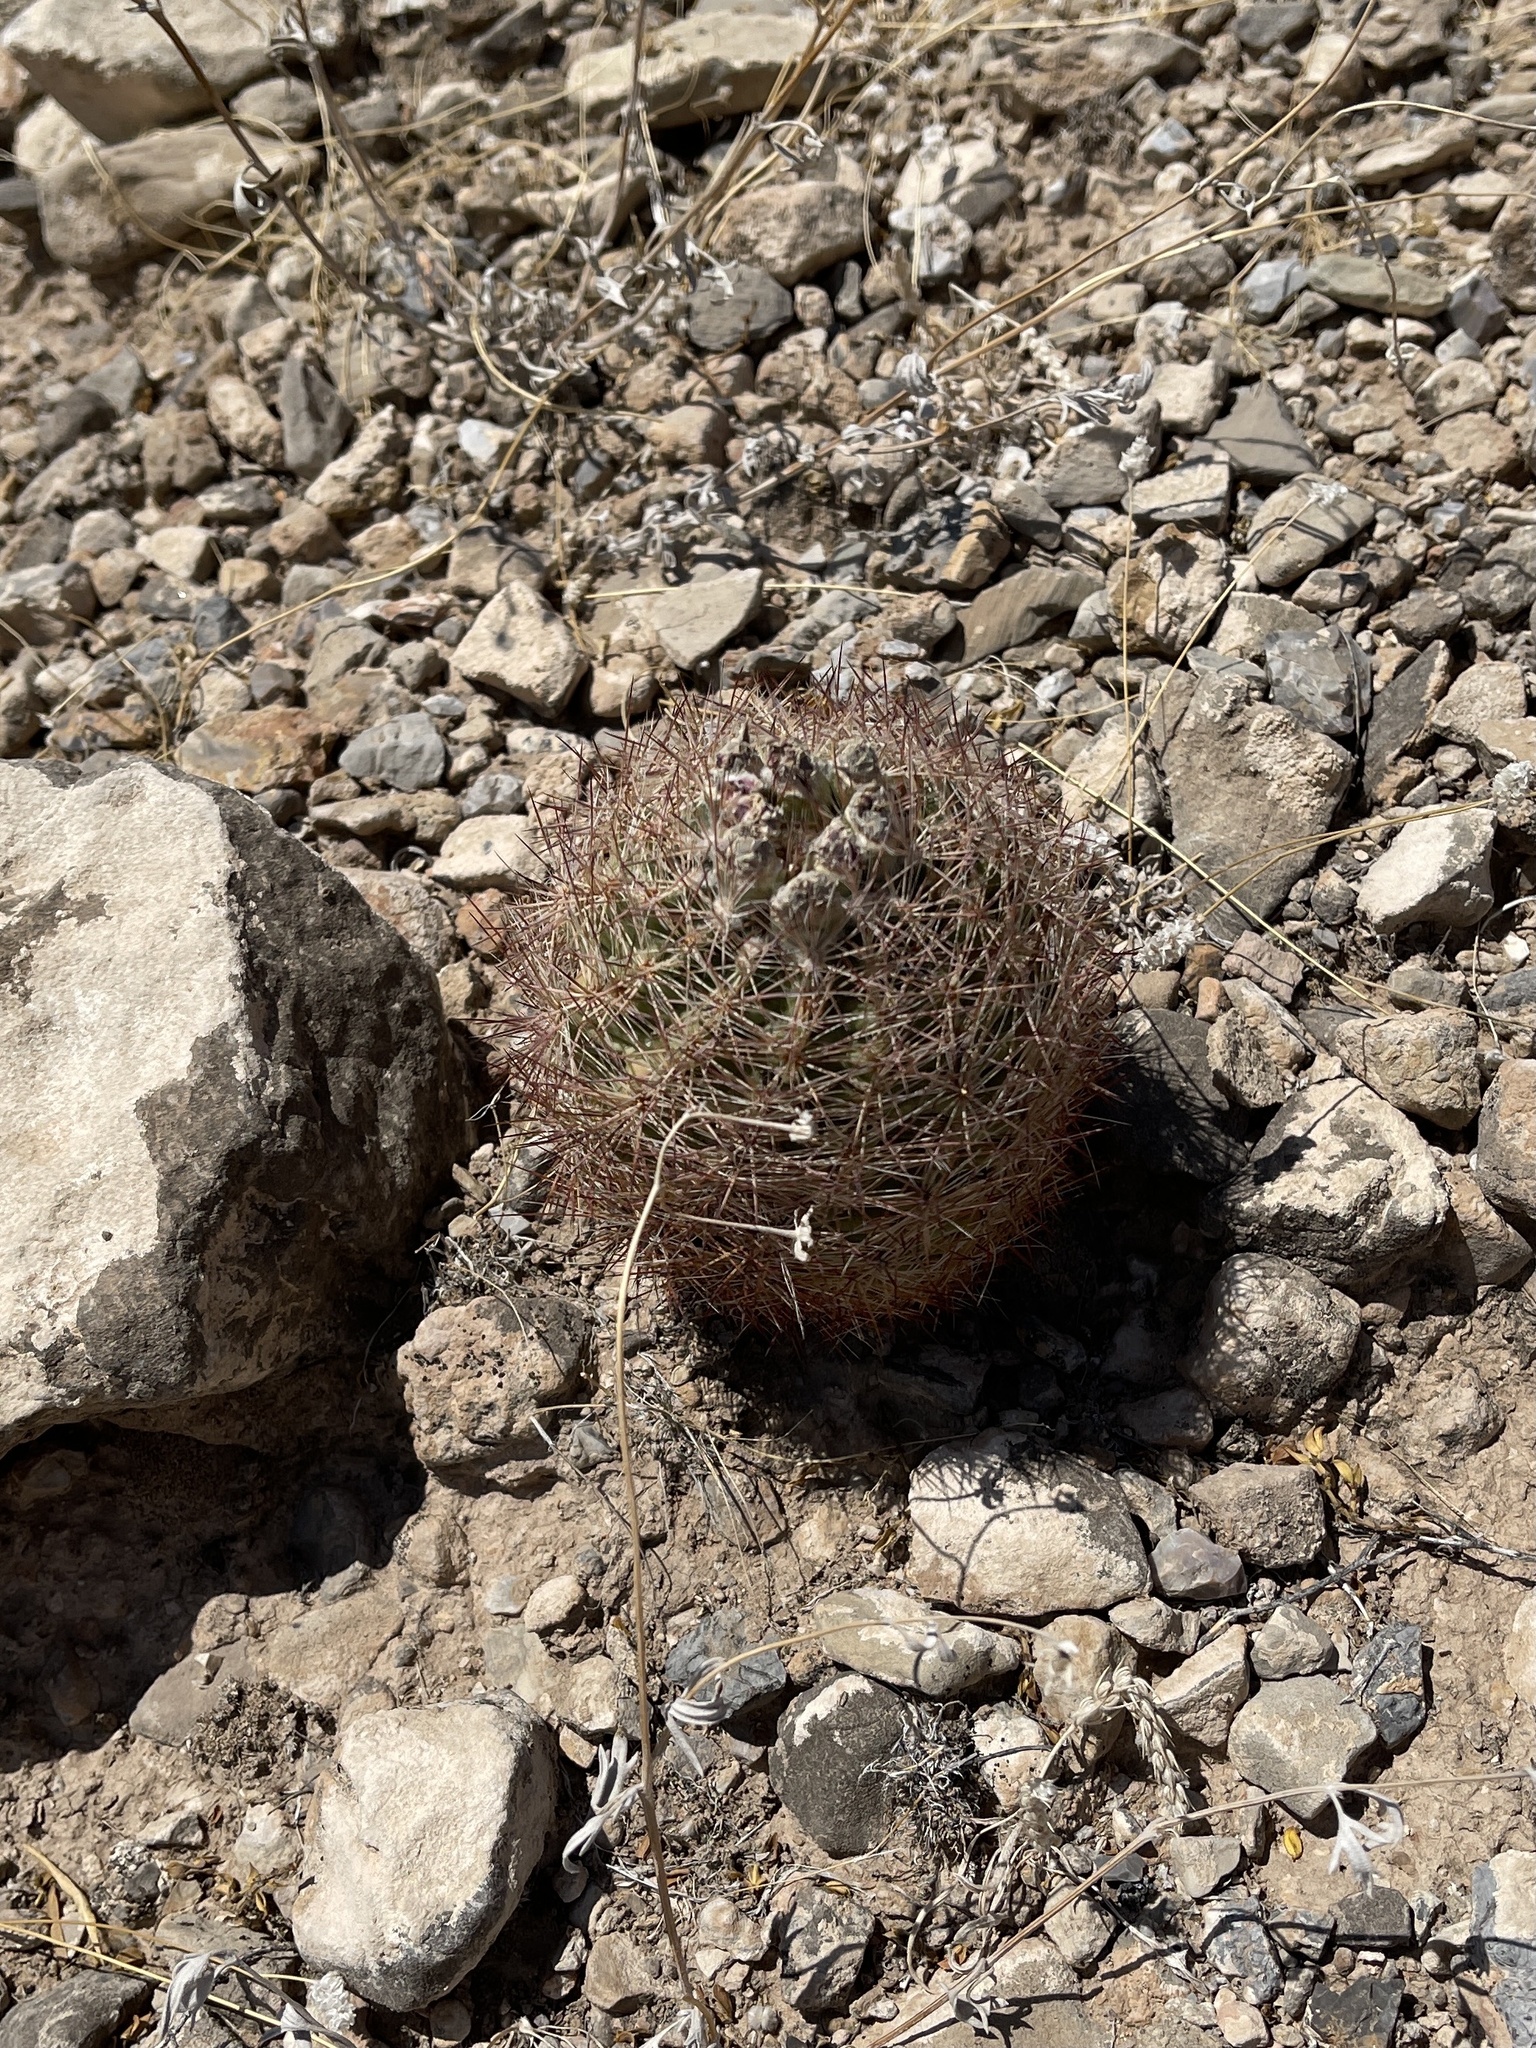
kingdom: Plantae
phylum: Tracheophyta
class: Magnoliopsida
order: Caryophyllales
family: Cactaceae
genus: Sclerocactus
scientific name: Sclerocactus intertextus
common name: White fish-hook cactus
